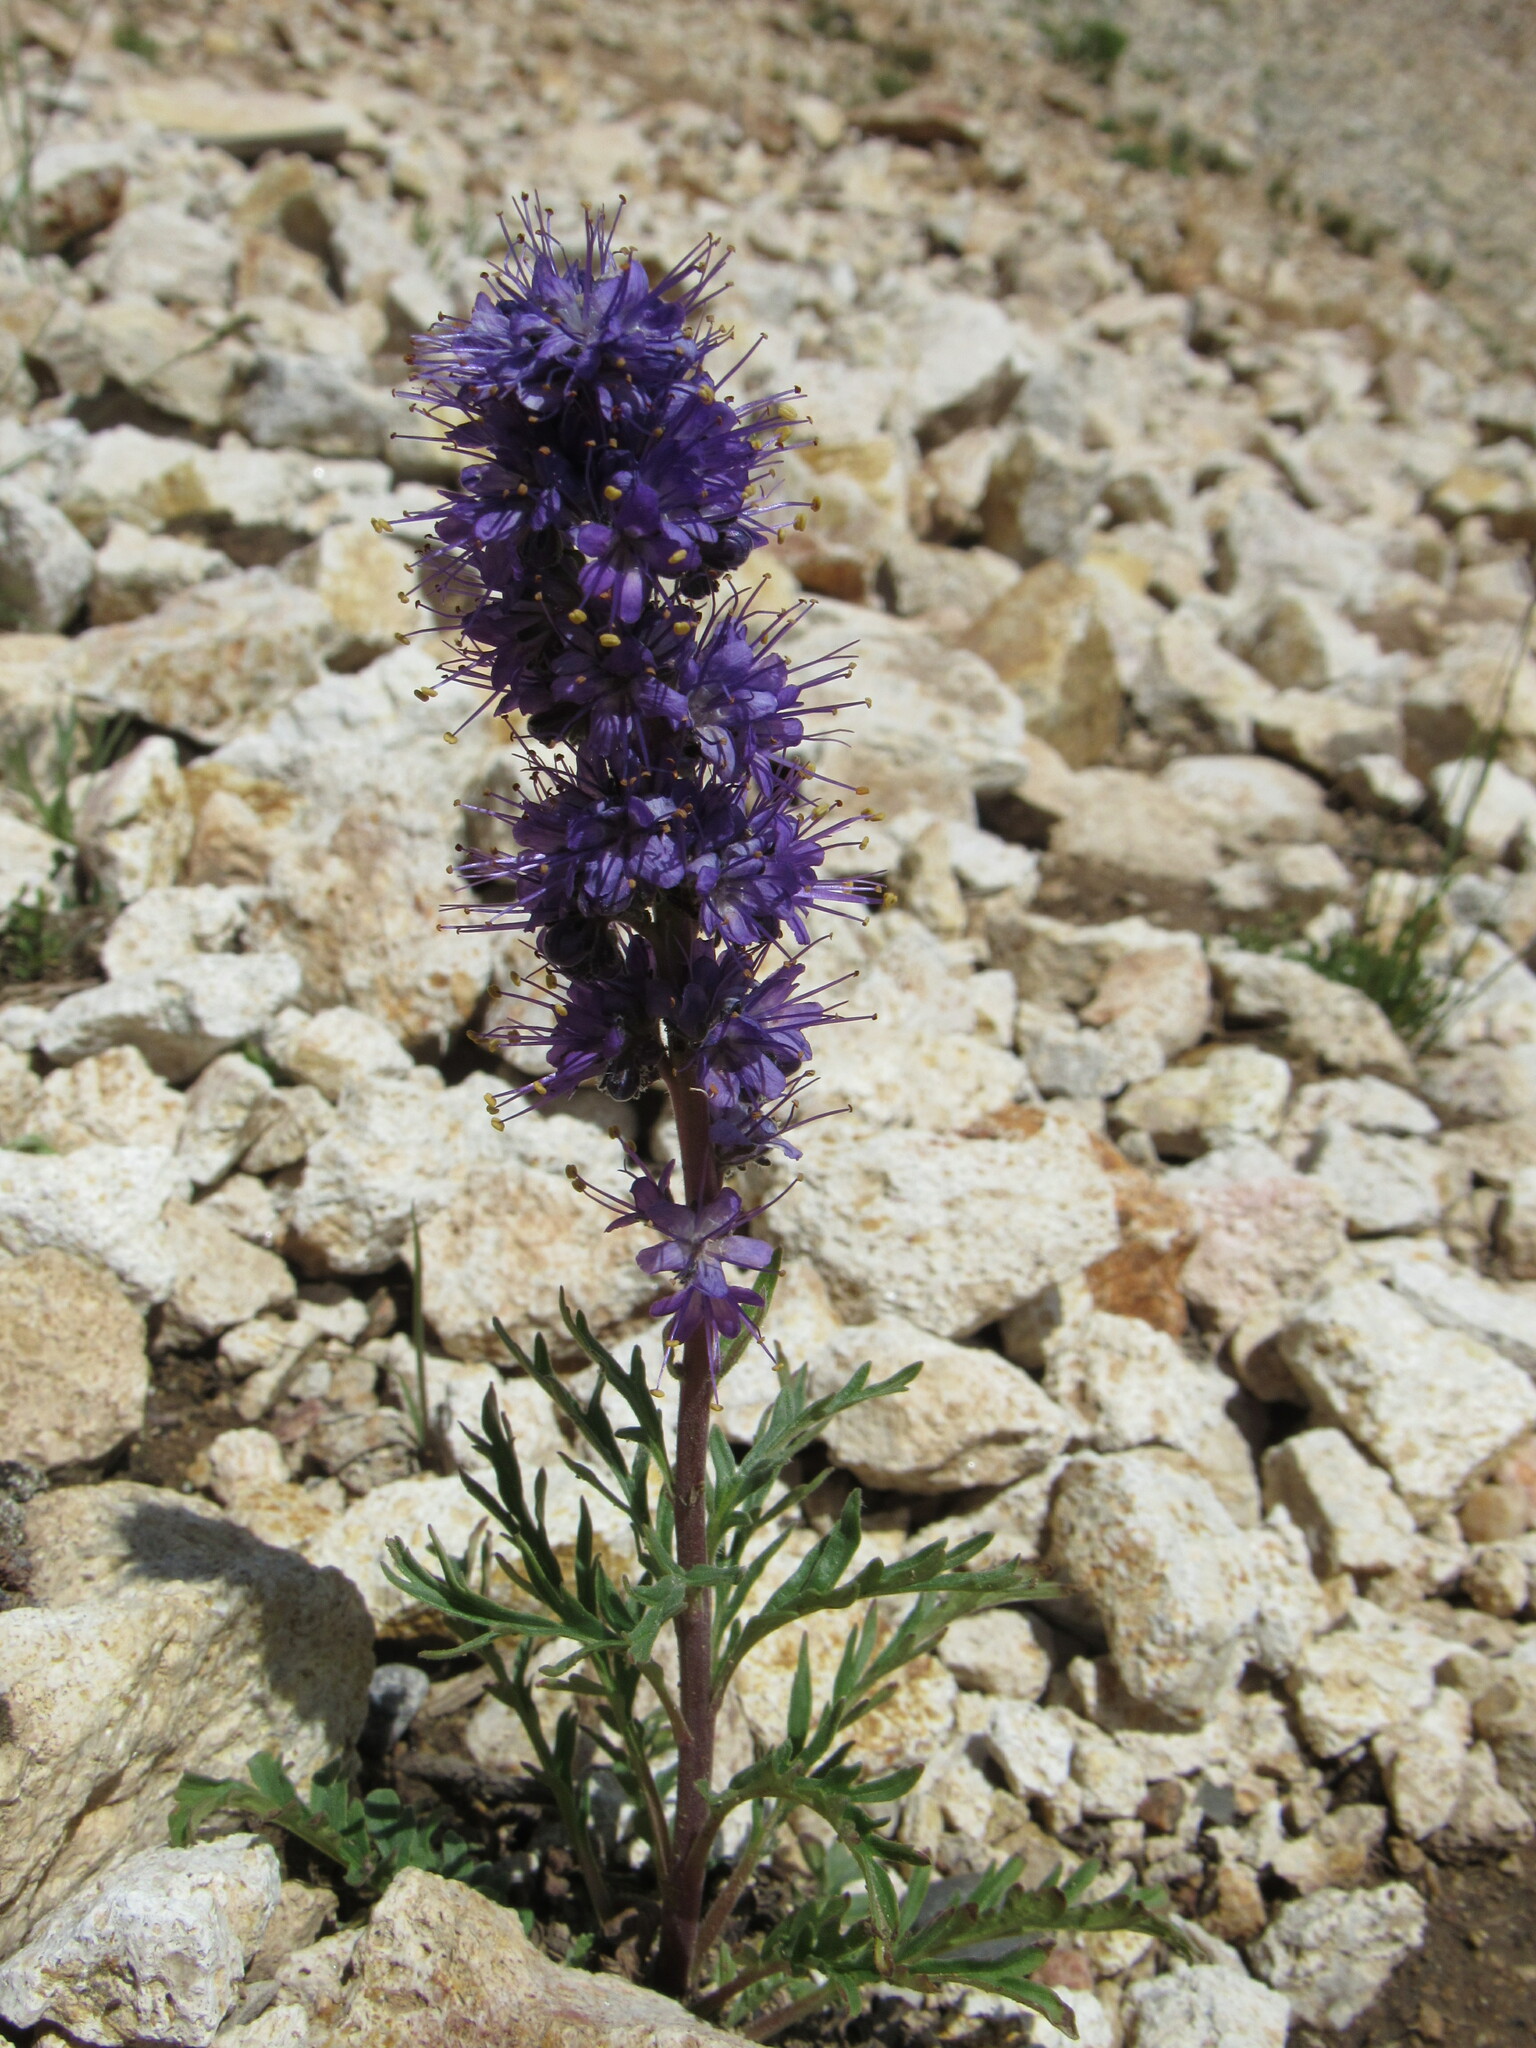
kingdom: Plantae
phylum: Tracheophyta
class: Magnoliopsida
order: Boraginales
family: Hydrophyllaceae
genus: Phacelia
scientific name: Phacelia sericea
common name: Silky phacelia
